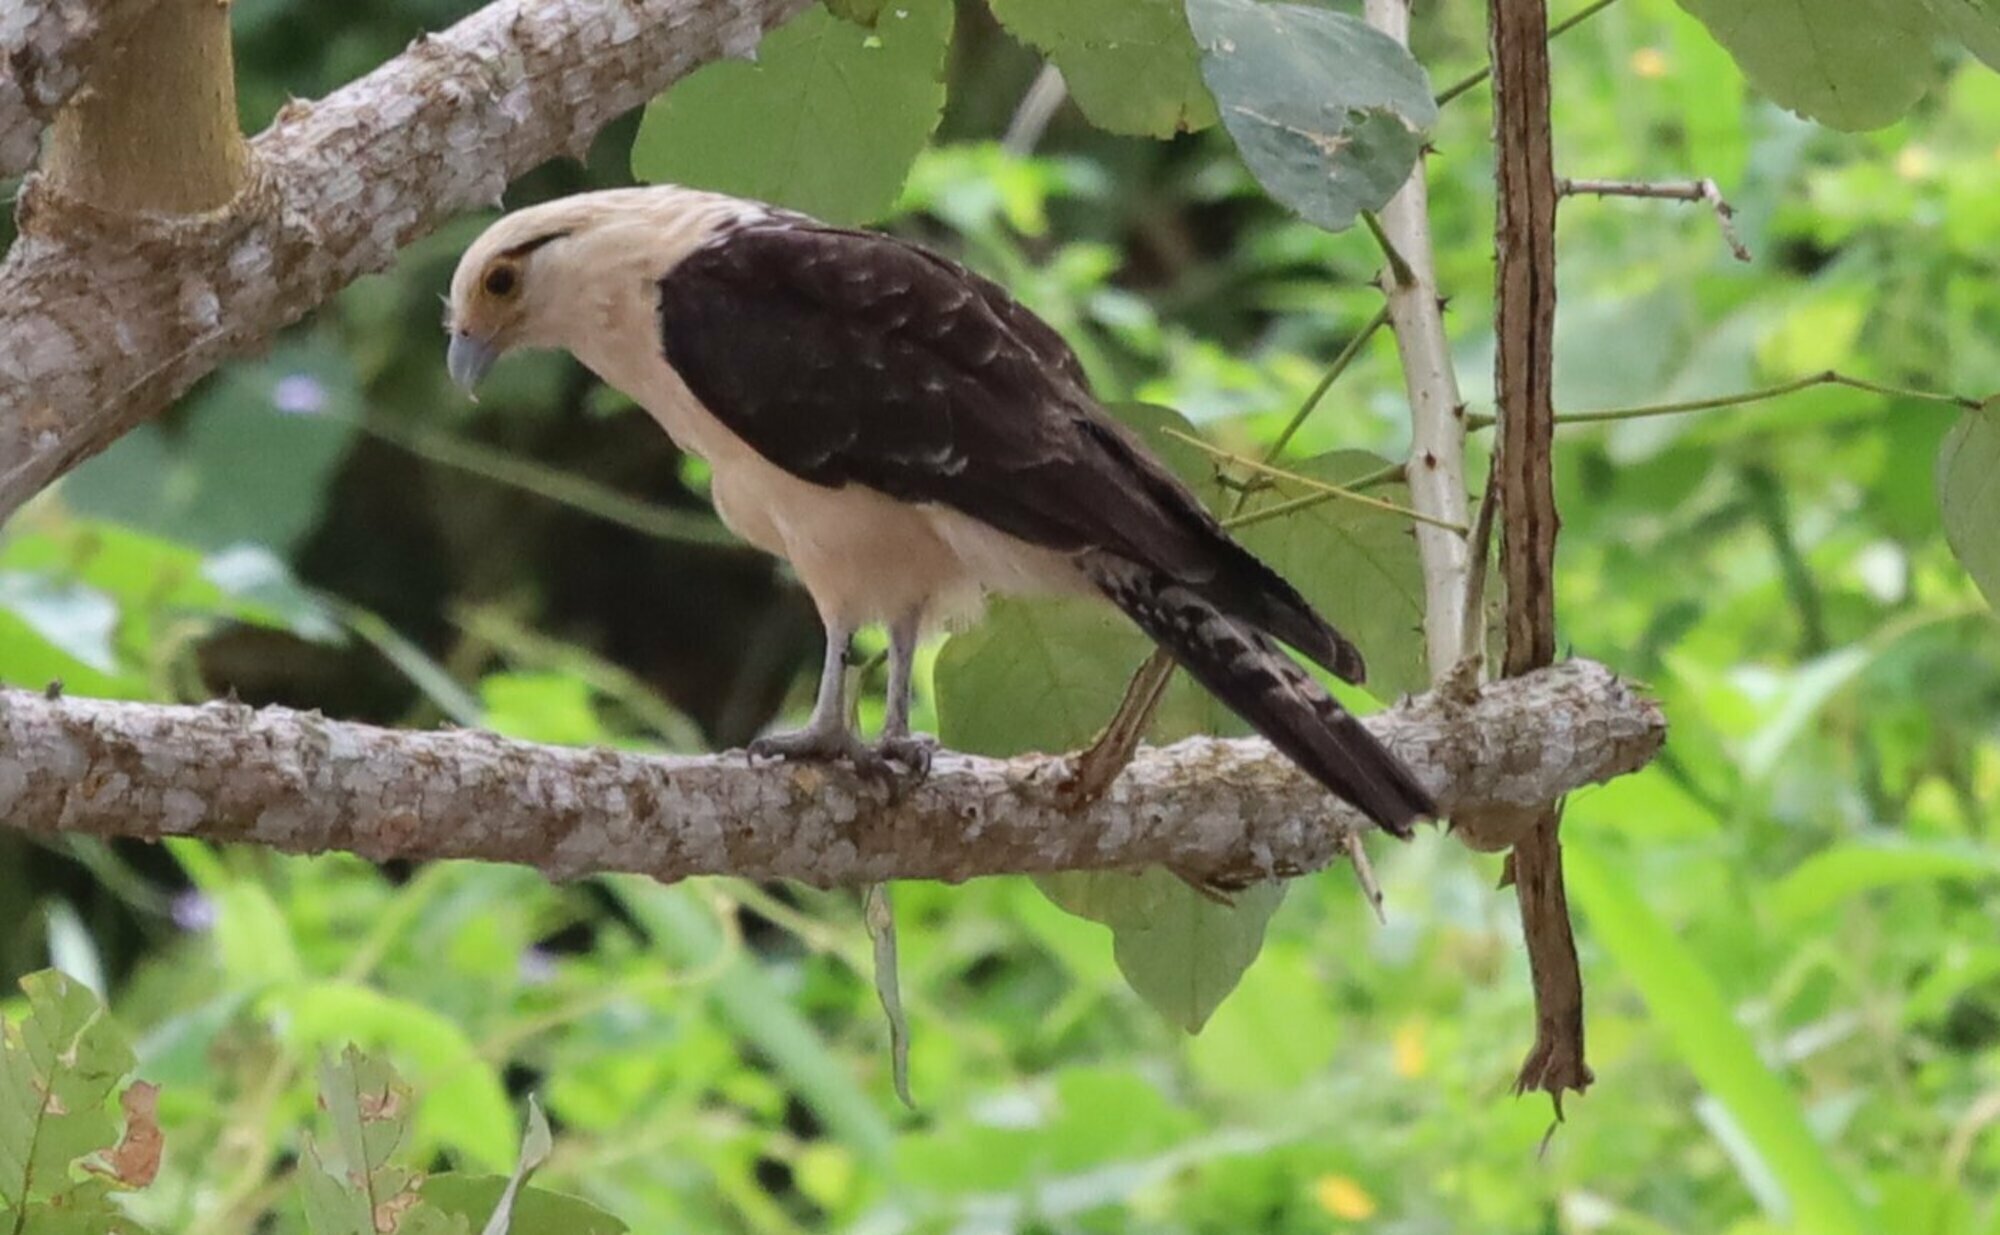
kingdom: Animalia
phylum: Chordata
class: Aves
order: Falconiformes
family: Falconidae
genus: Daptrius
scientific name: Daptrius
